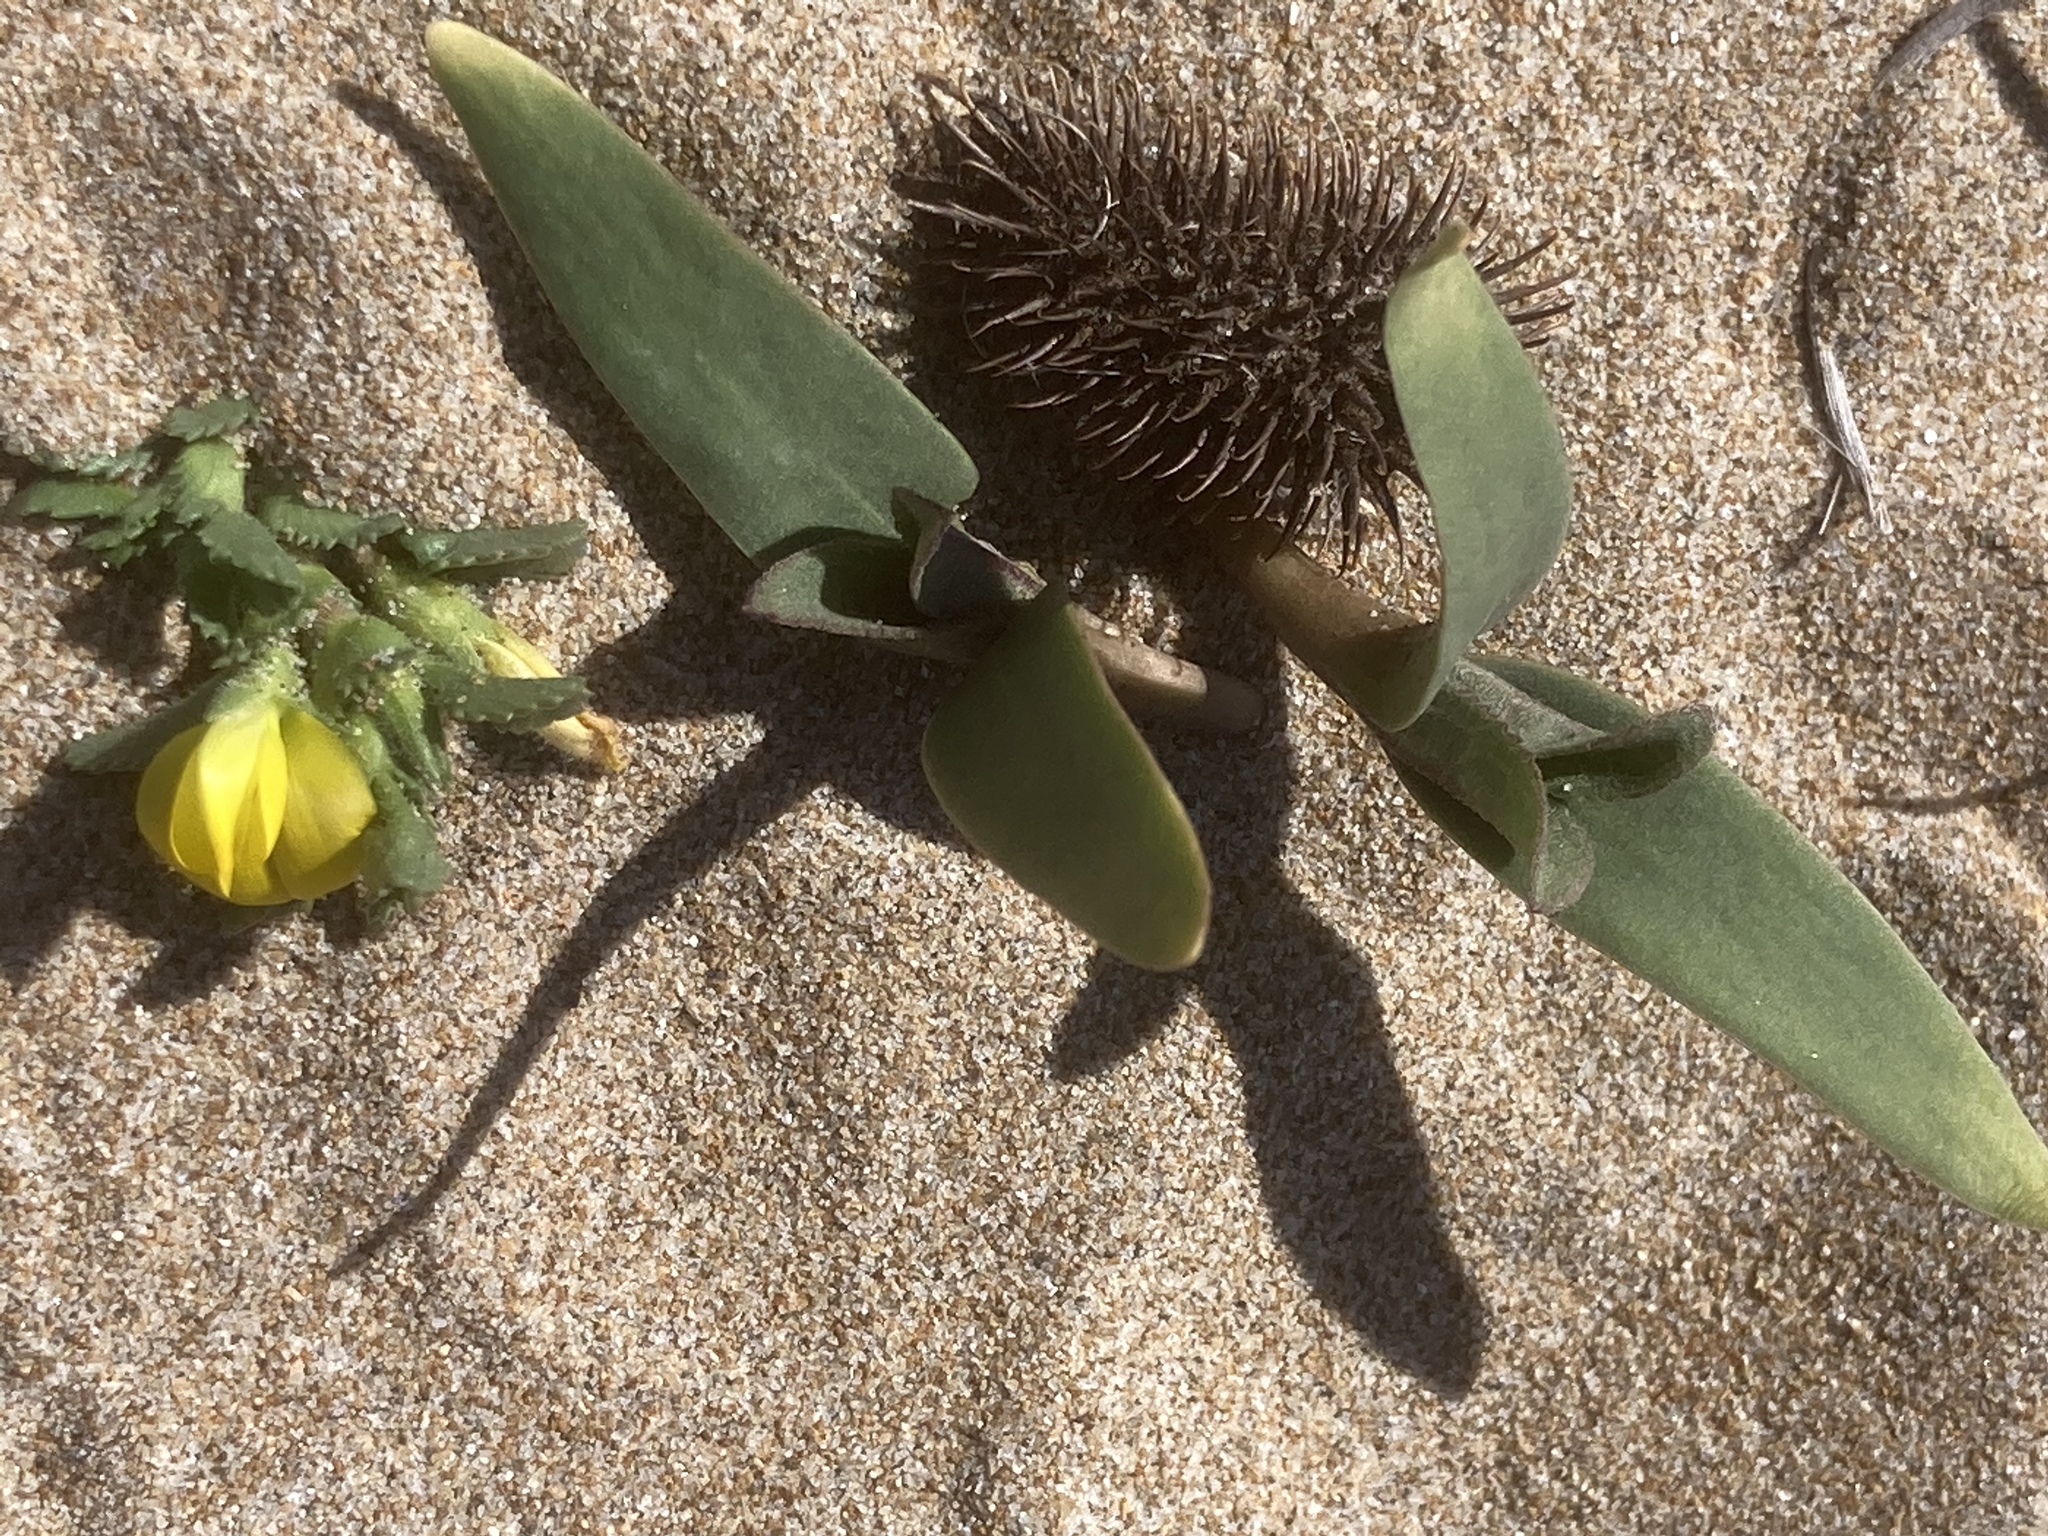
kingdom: Plantae
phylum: Tracheophyta
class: Magnoliopsida
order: Fabales
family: Fabaceae
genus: Ononis
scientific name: Ononis variegata
